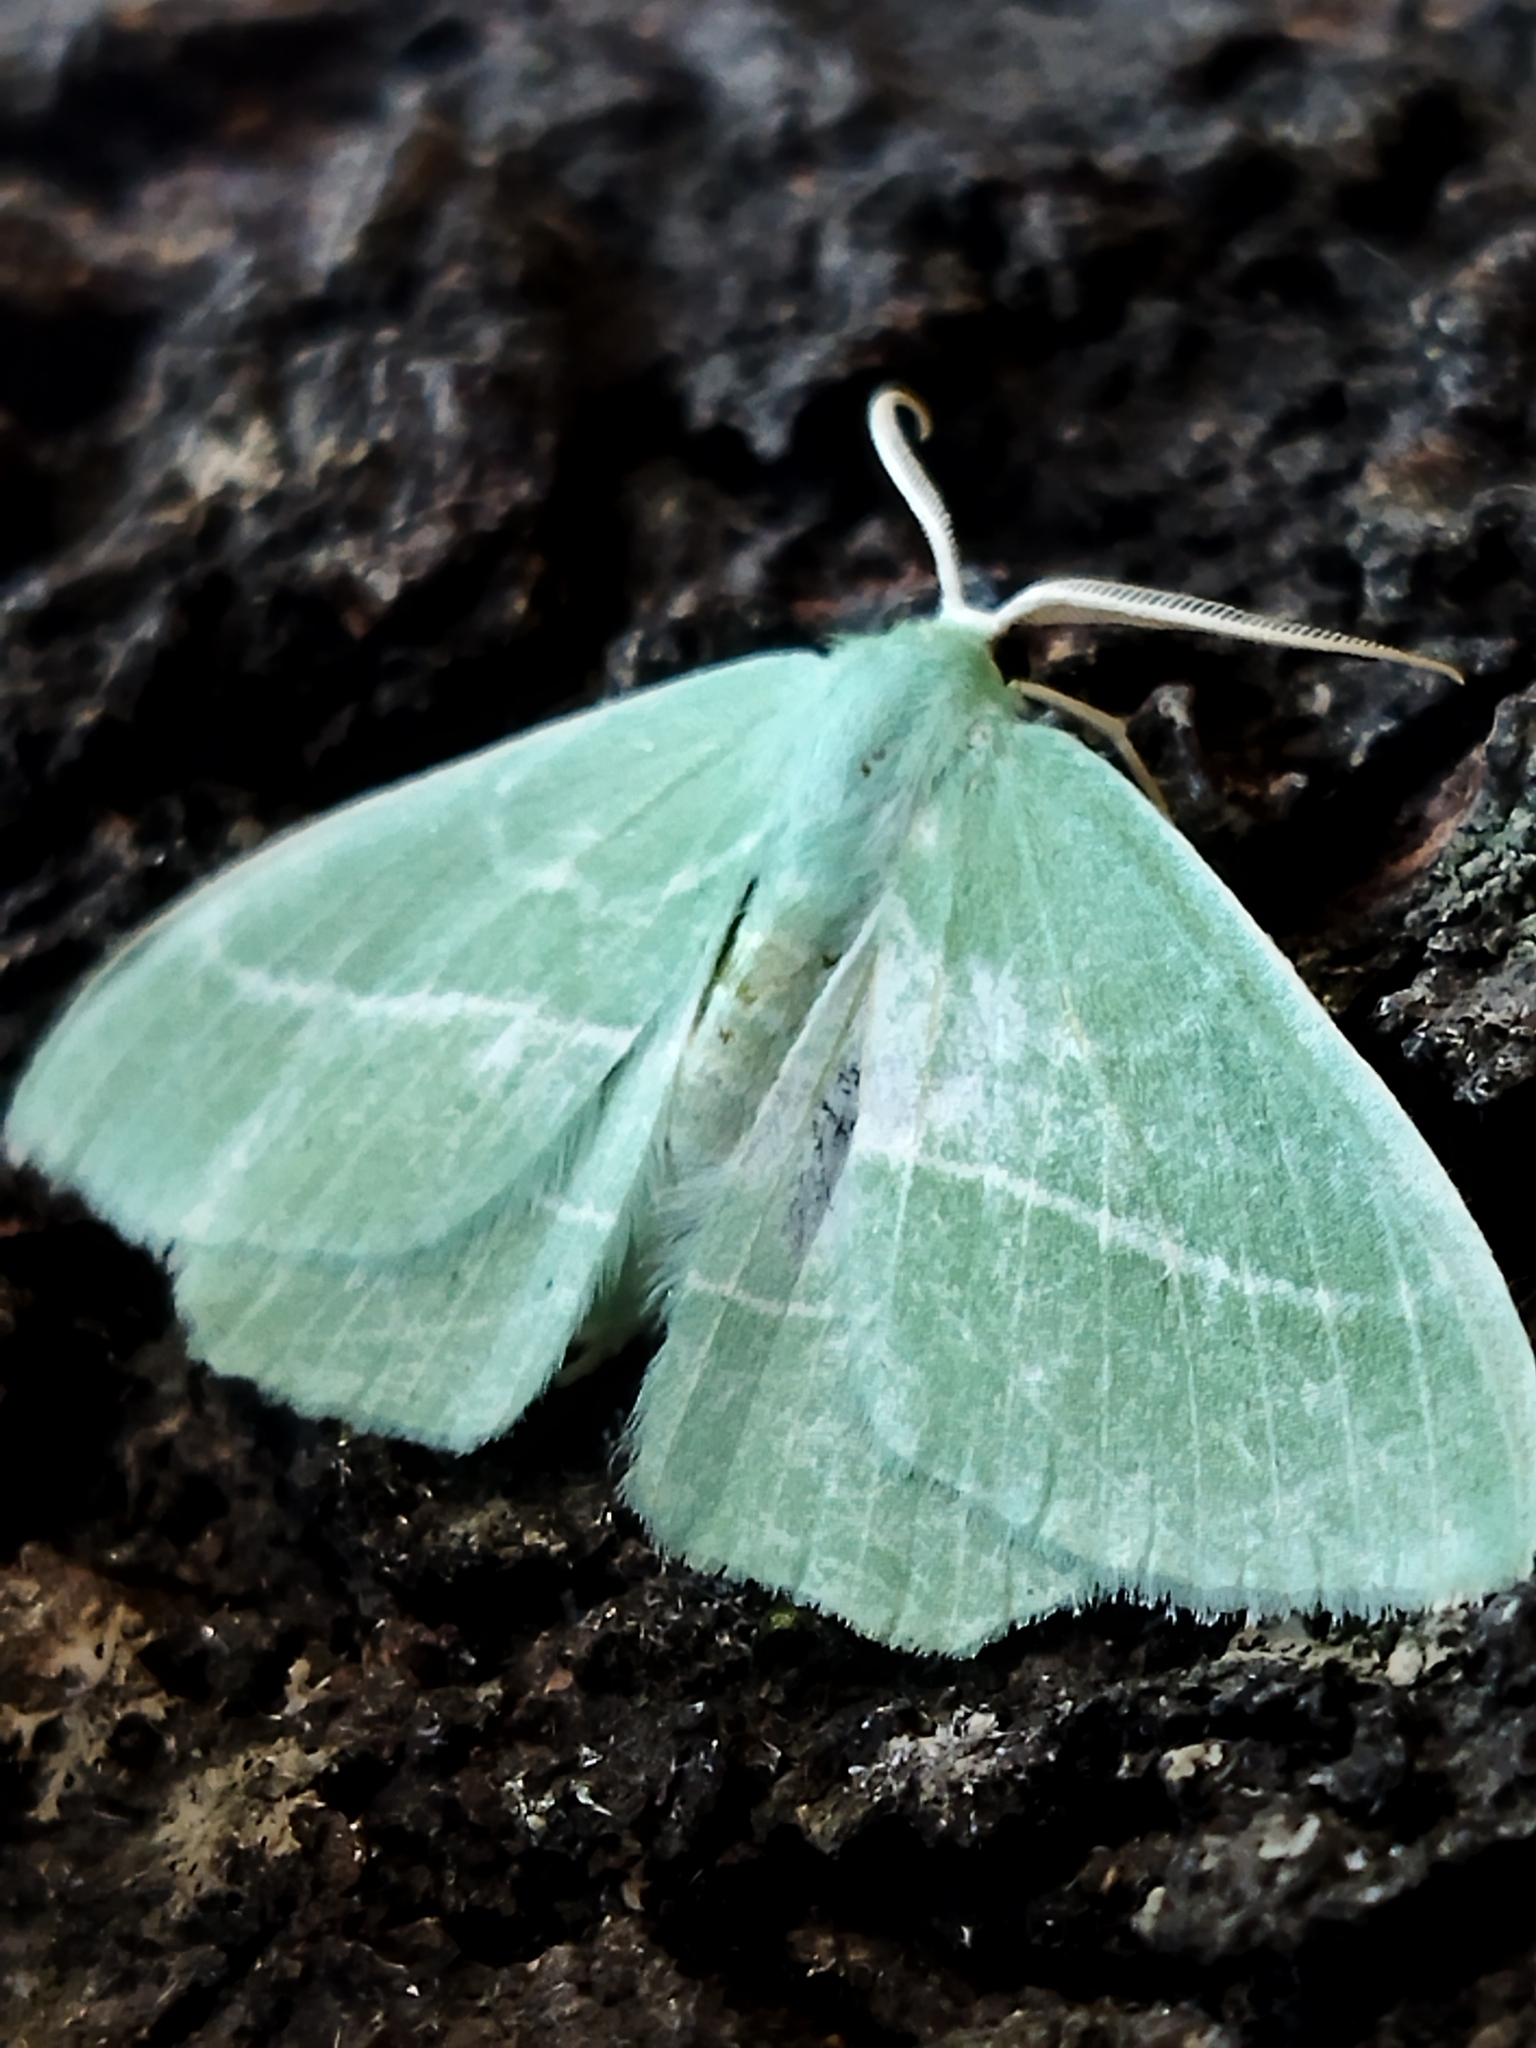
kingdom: Animalia
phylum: Arthropoda
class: Insecta
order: Lepidoptera
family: Geometridae
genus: Hemistola
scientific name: Hemistola chrysoprasaria
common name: Small emerald
